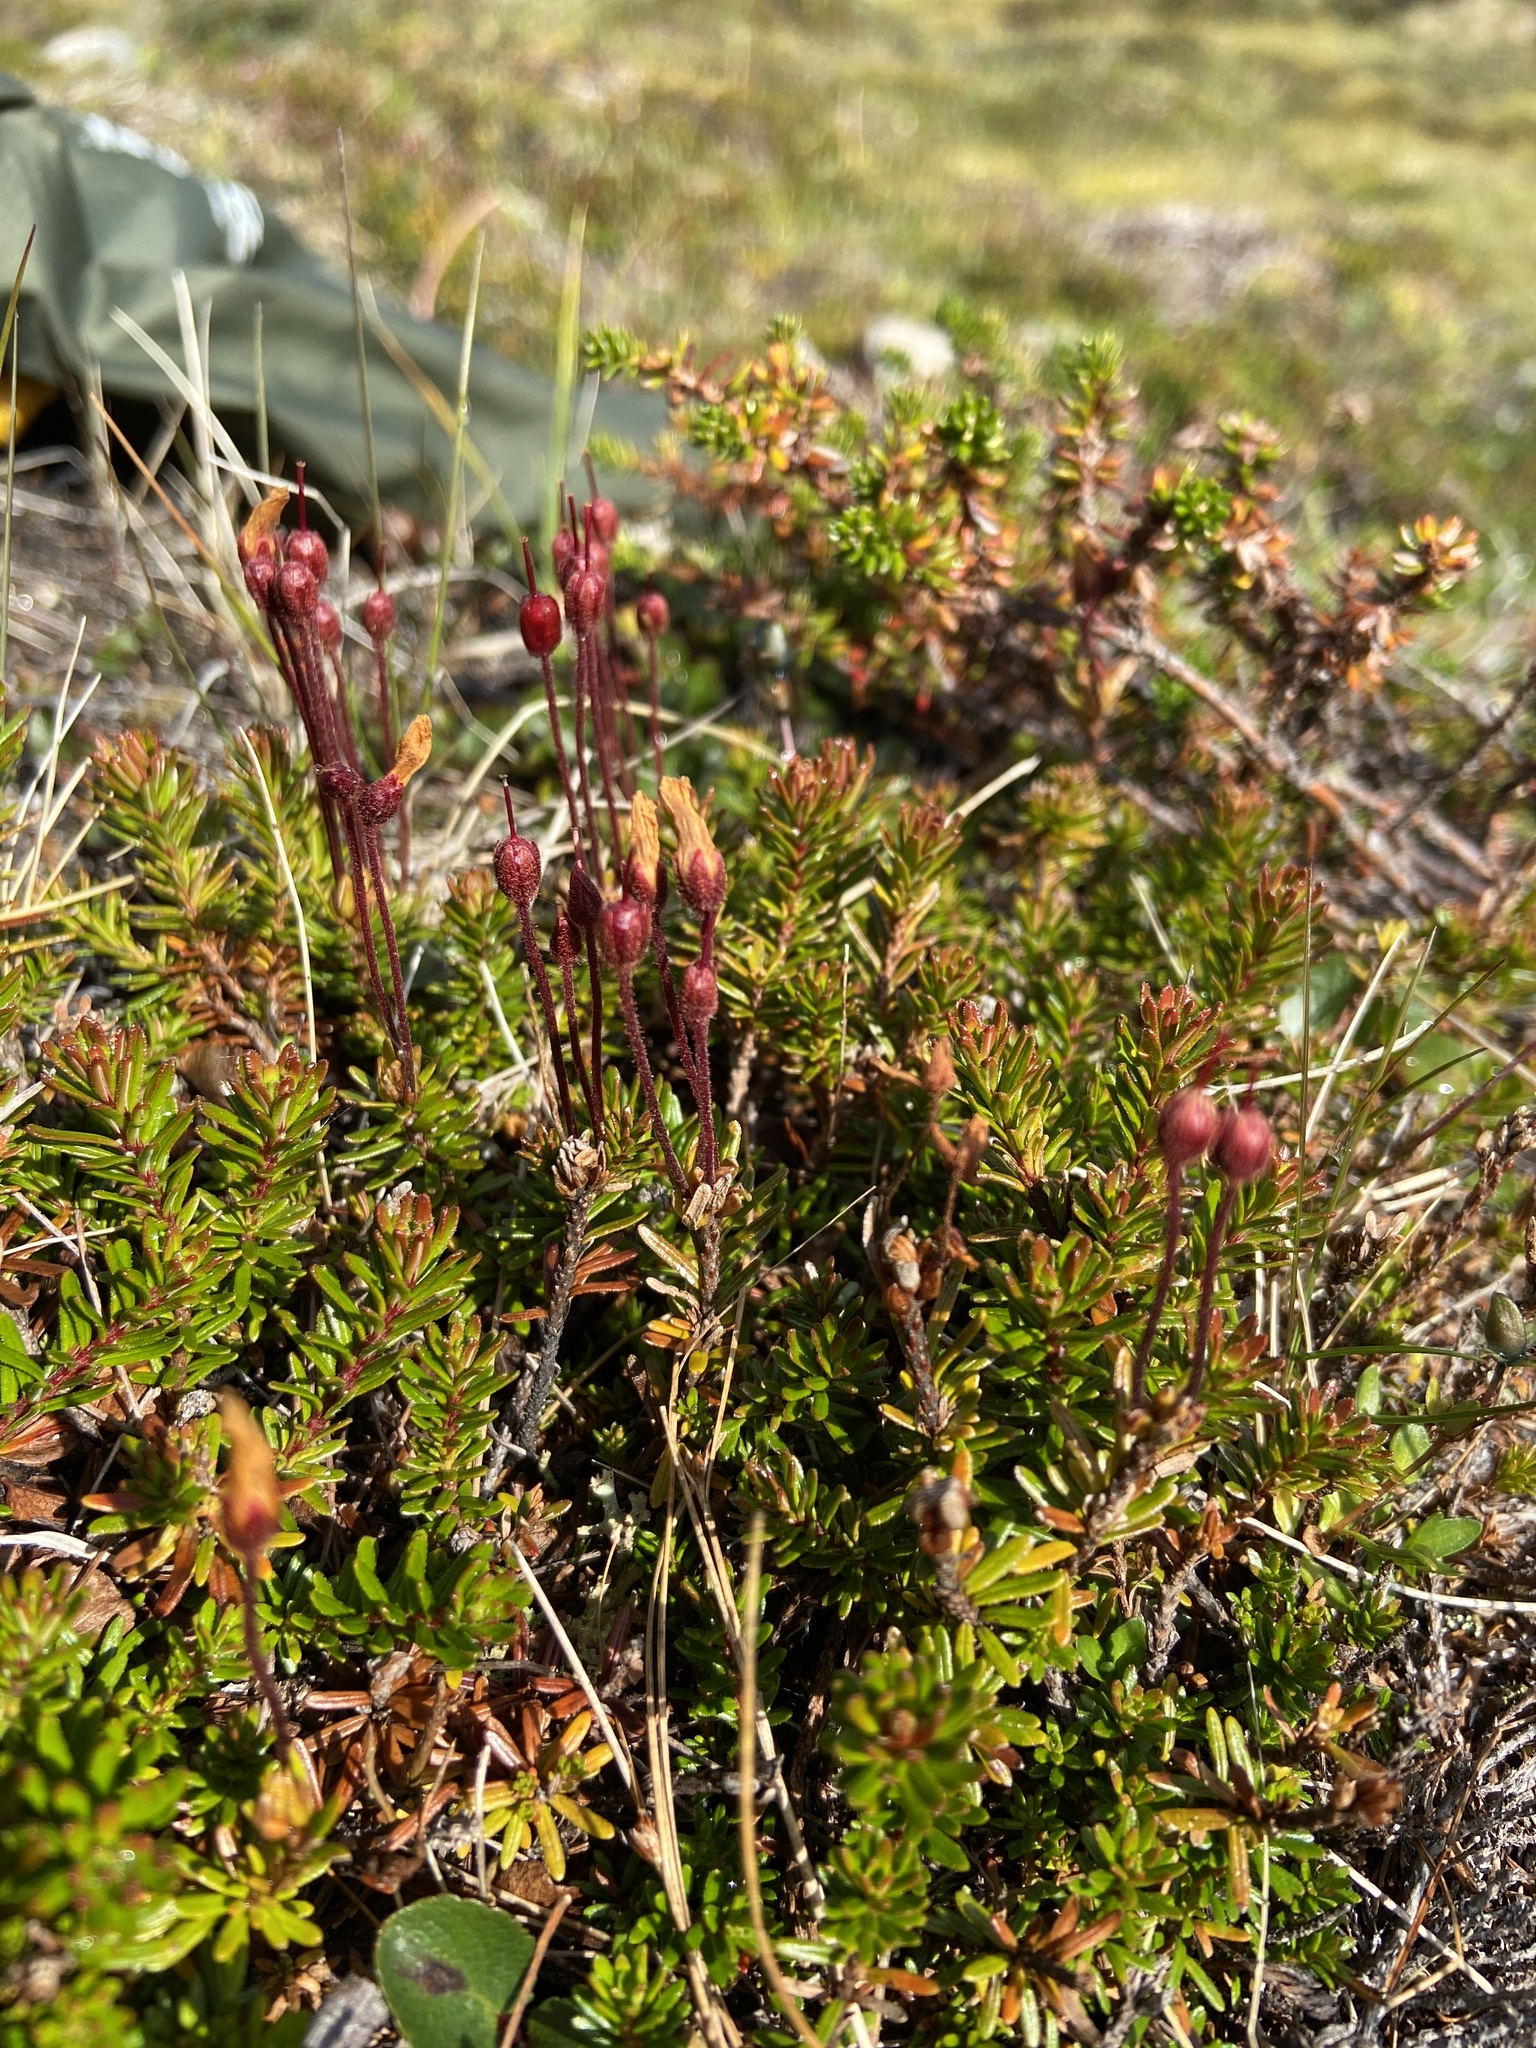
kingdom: Plantae
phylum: Tracheophyta
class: Magnoliopsida
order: Ericales
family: Ericaceae
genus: Phyllodoce
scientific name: Phyllodoce caerulea
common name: Blue heath
